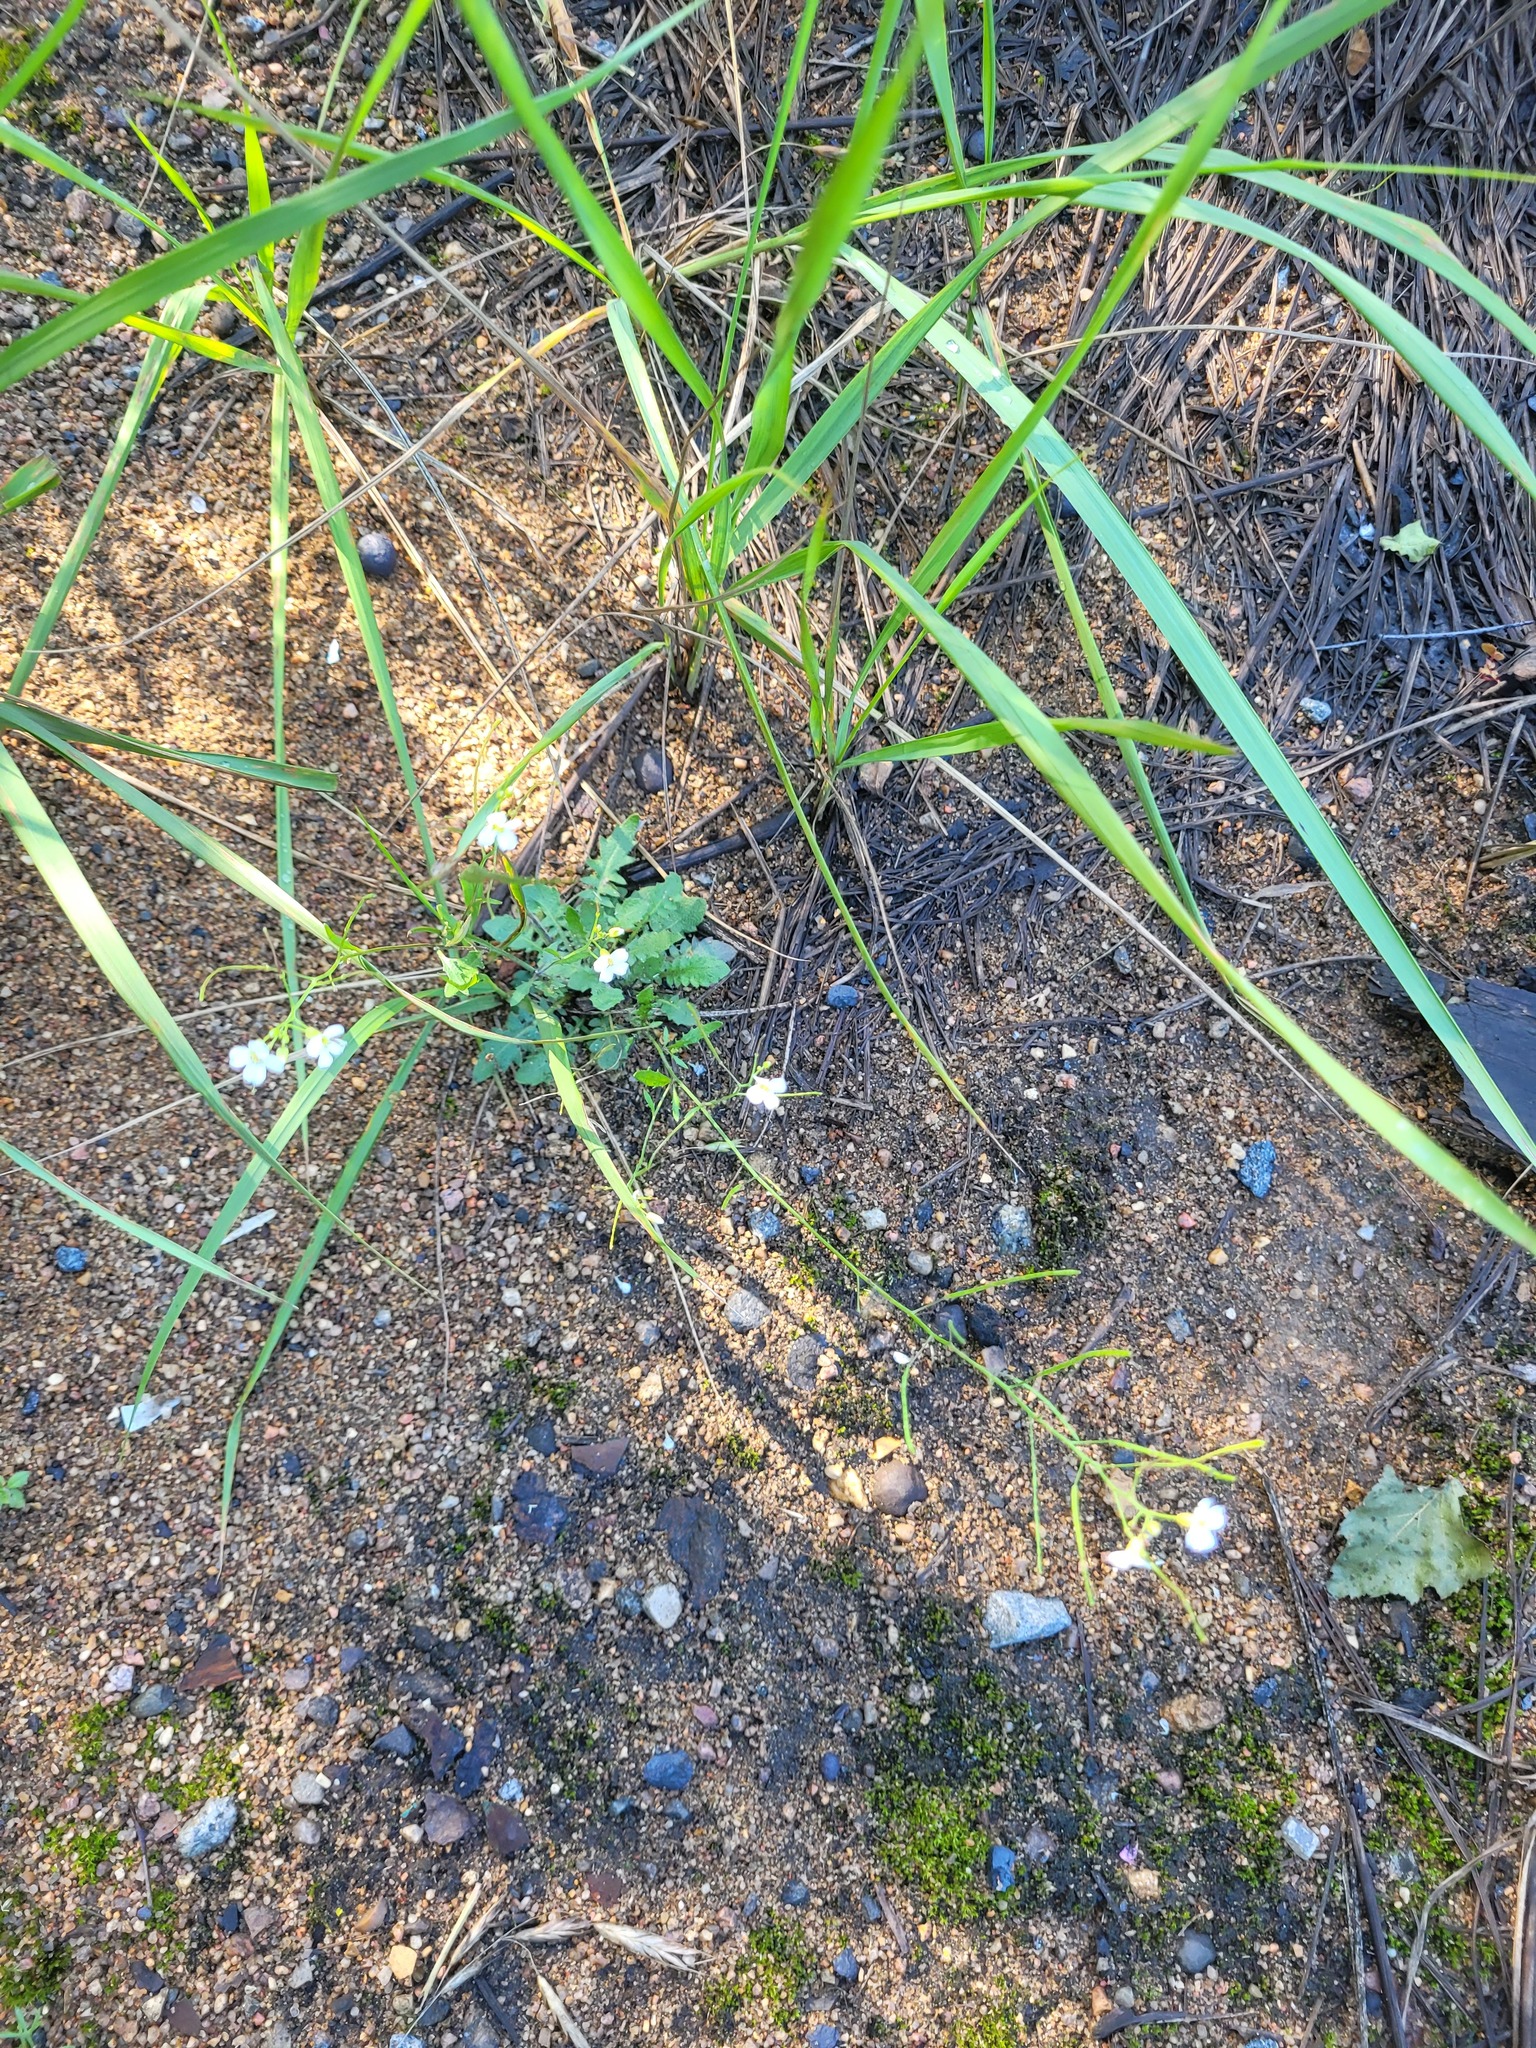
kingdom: Plantae
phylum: Tracheophyta
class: Magnoliopsida
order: Brassicales
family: Brassicaceae
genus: Arabidopsis
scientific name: Arabidopsis arenosa
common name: Sand rock-cress
